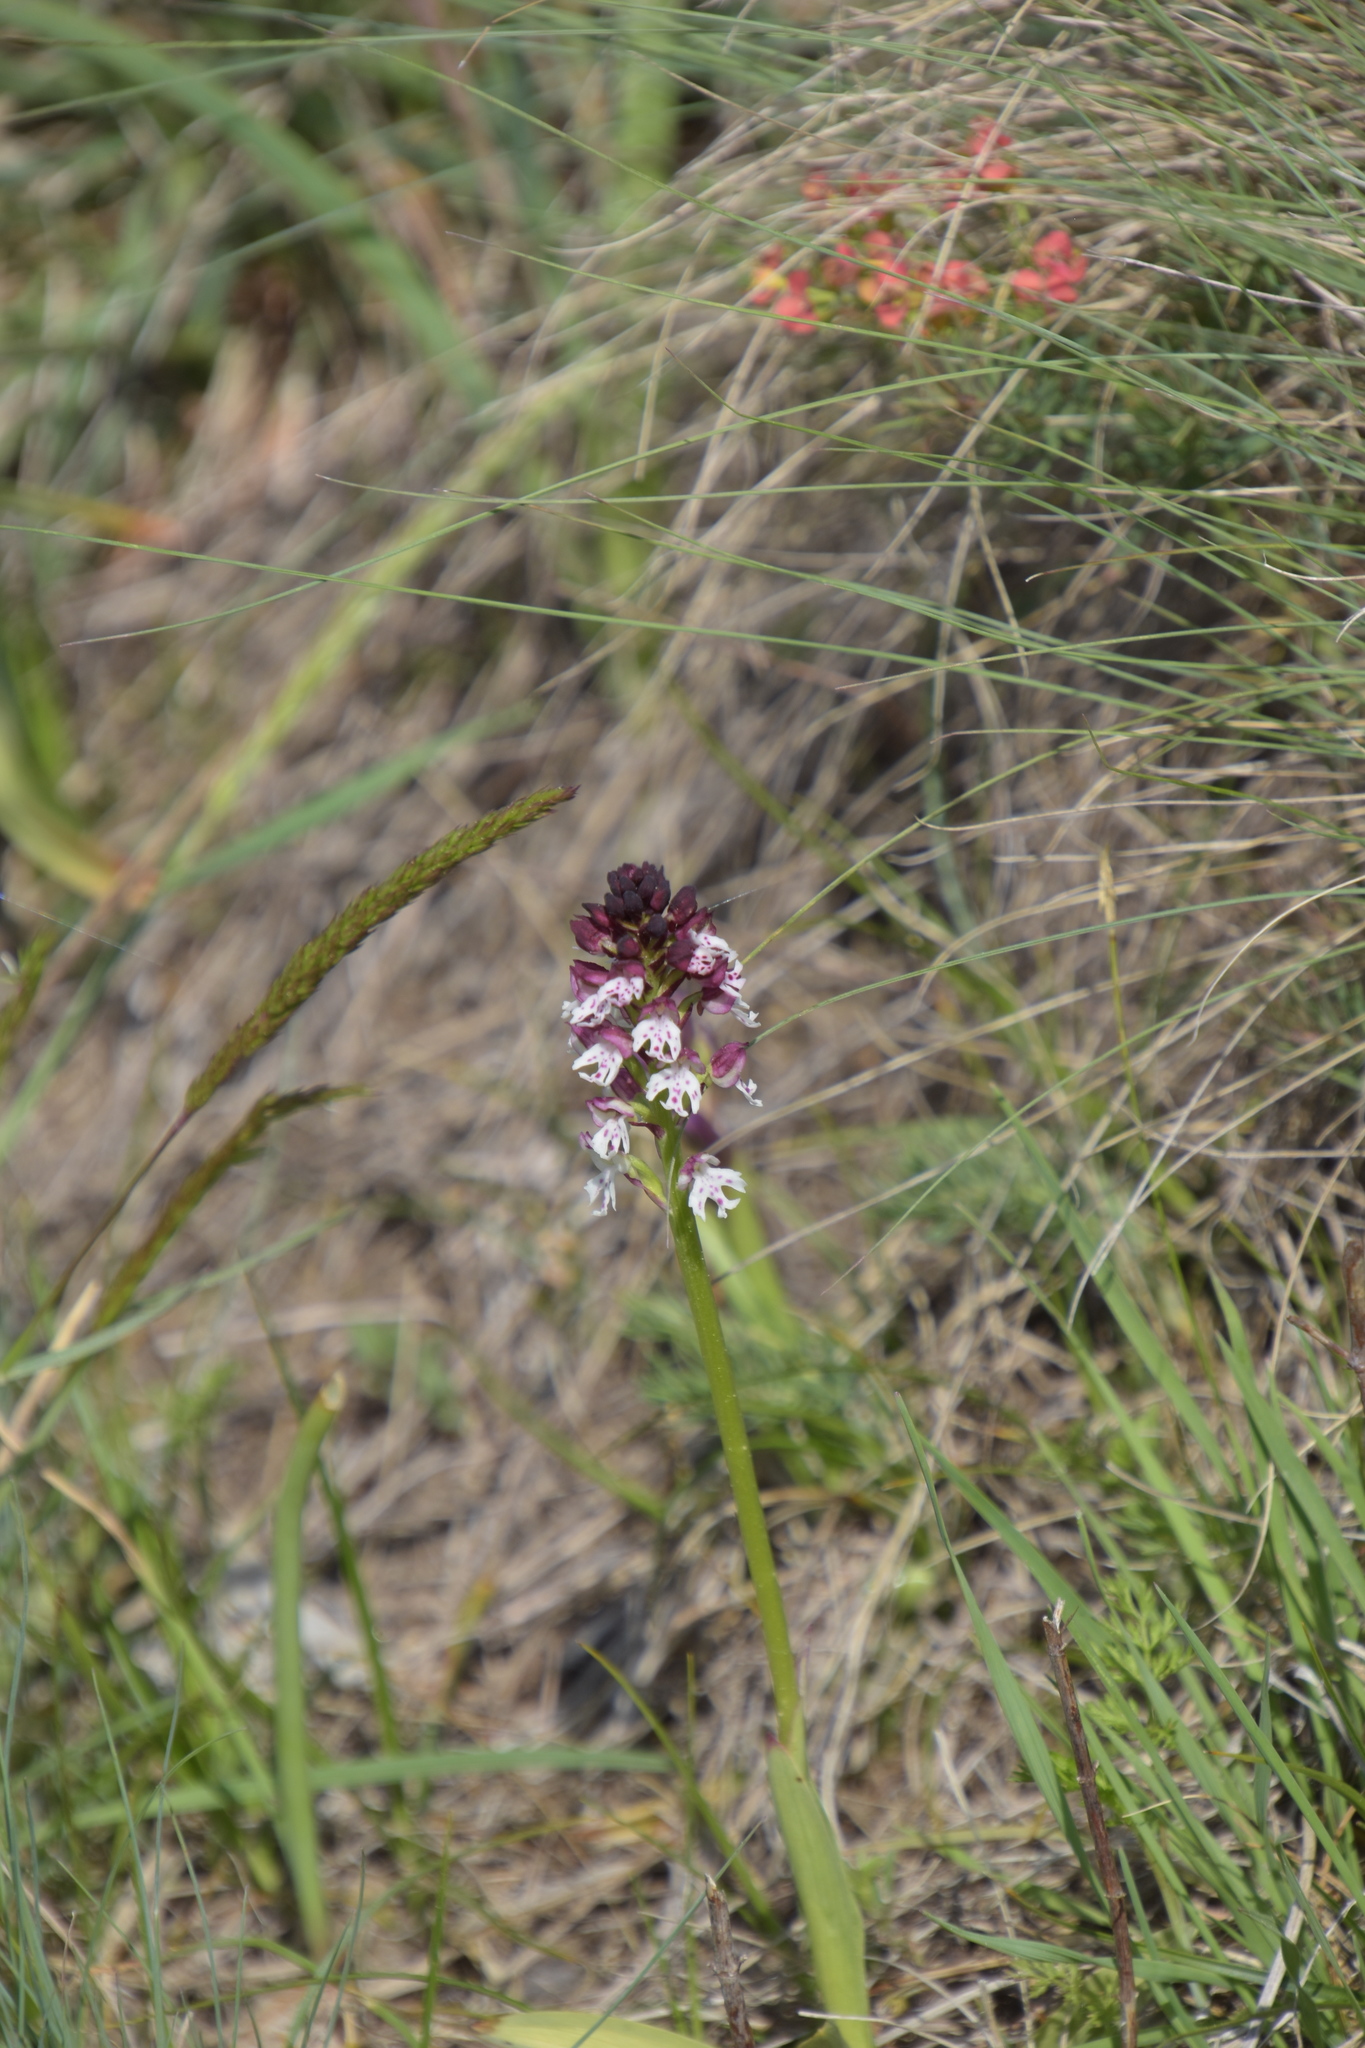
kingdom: Plantae
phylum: Tracheophyta
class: Liliopsida
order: Asparagales
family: Orchidaceae
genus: Neotinea
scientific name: Neotinea ustulata
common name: Burnt orchid
